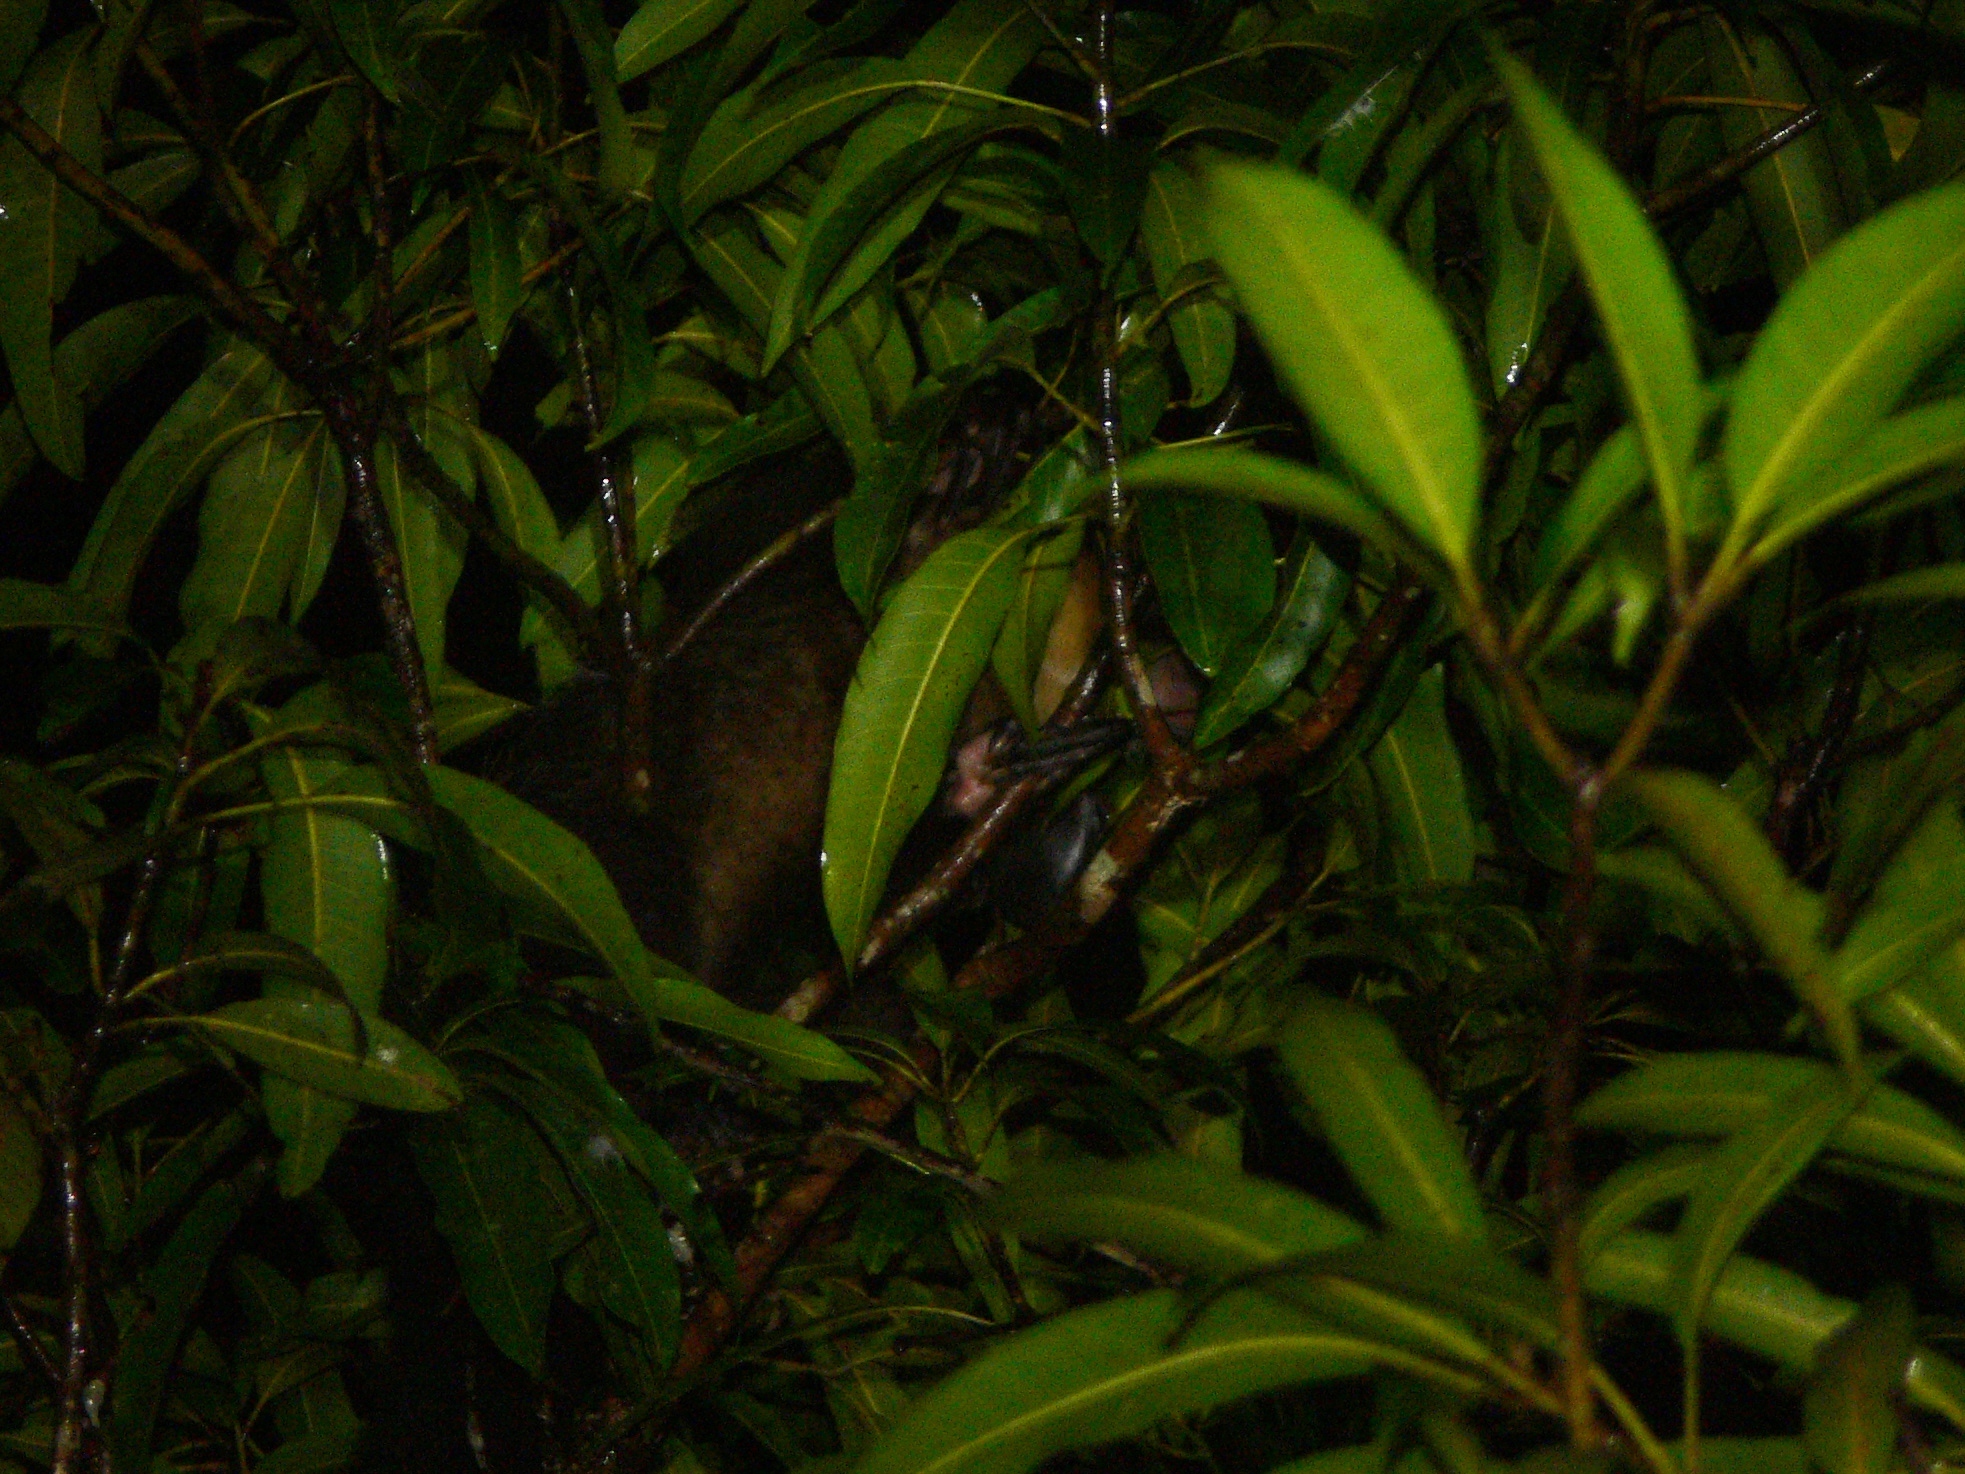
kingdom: Animalia
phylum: Chordata
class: Mammalia
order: Primates
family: Daubentoniidae
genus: Daubentonia
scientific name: Daubentonia madagascariensis
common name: Aye-aye
